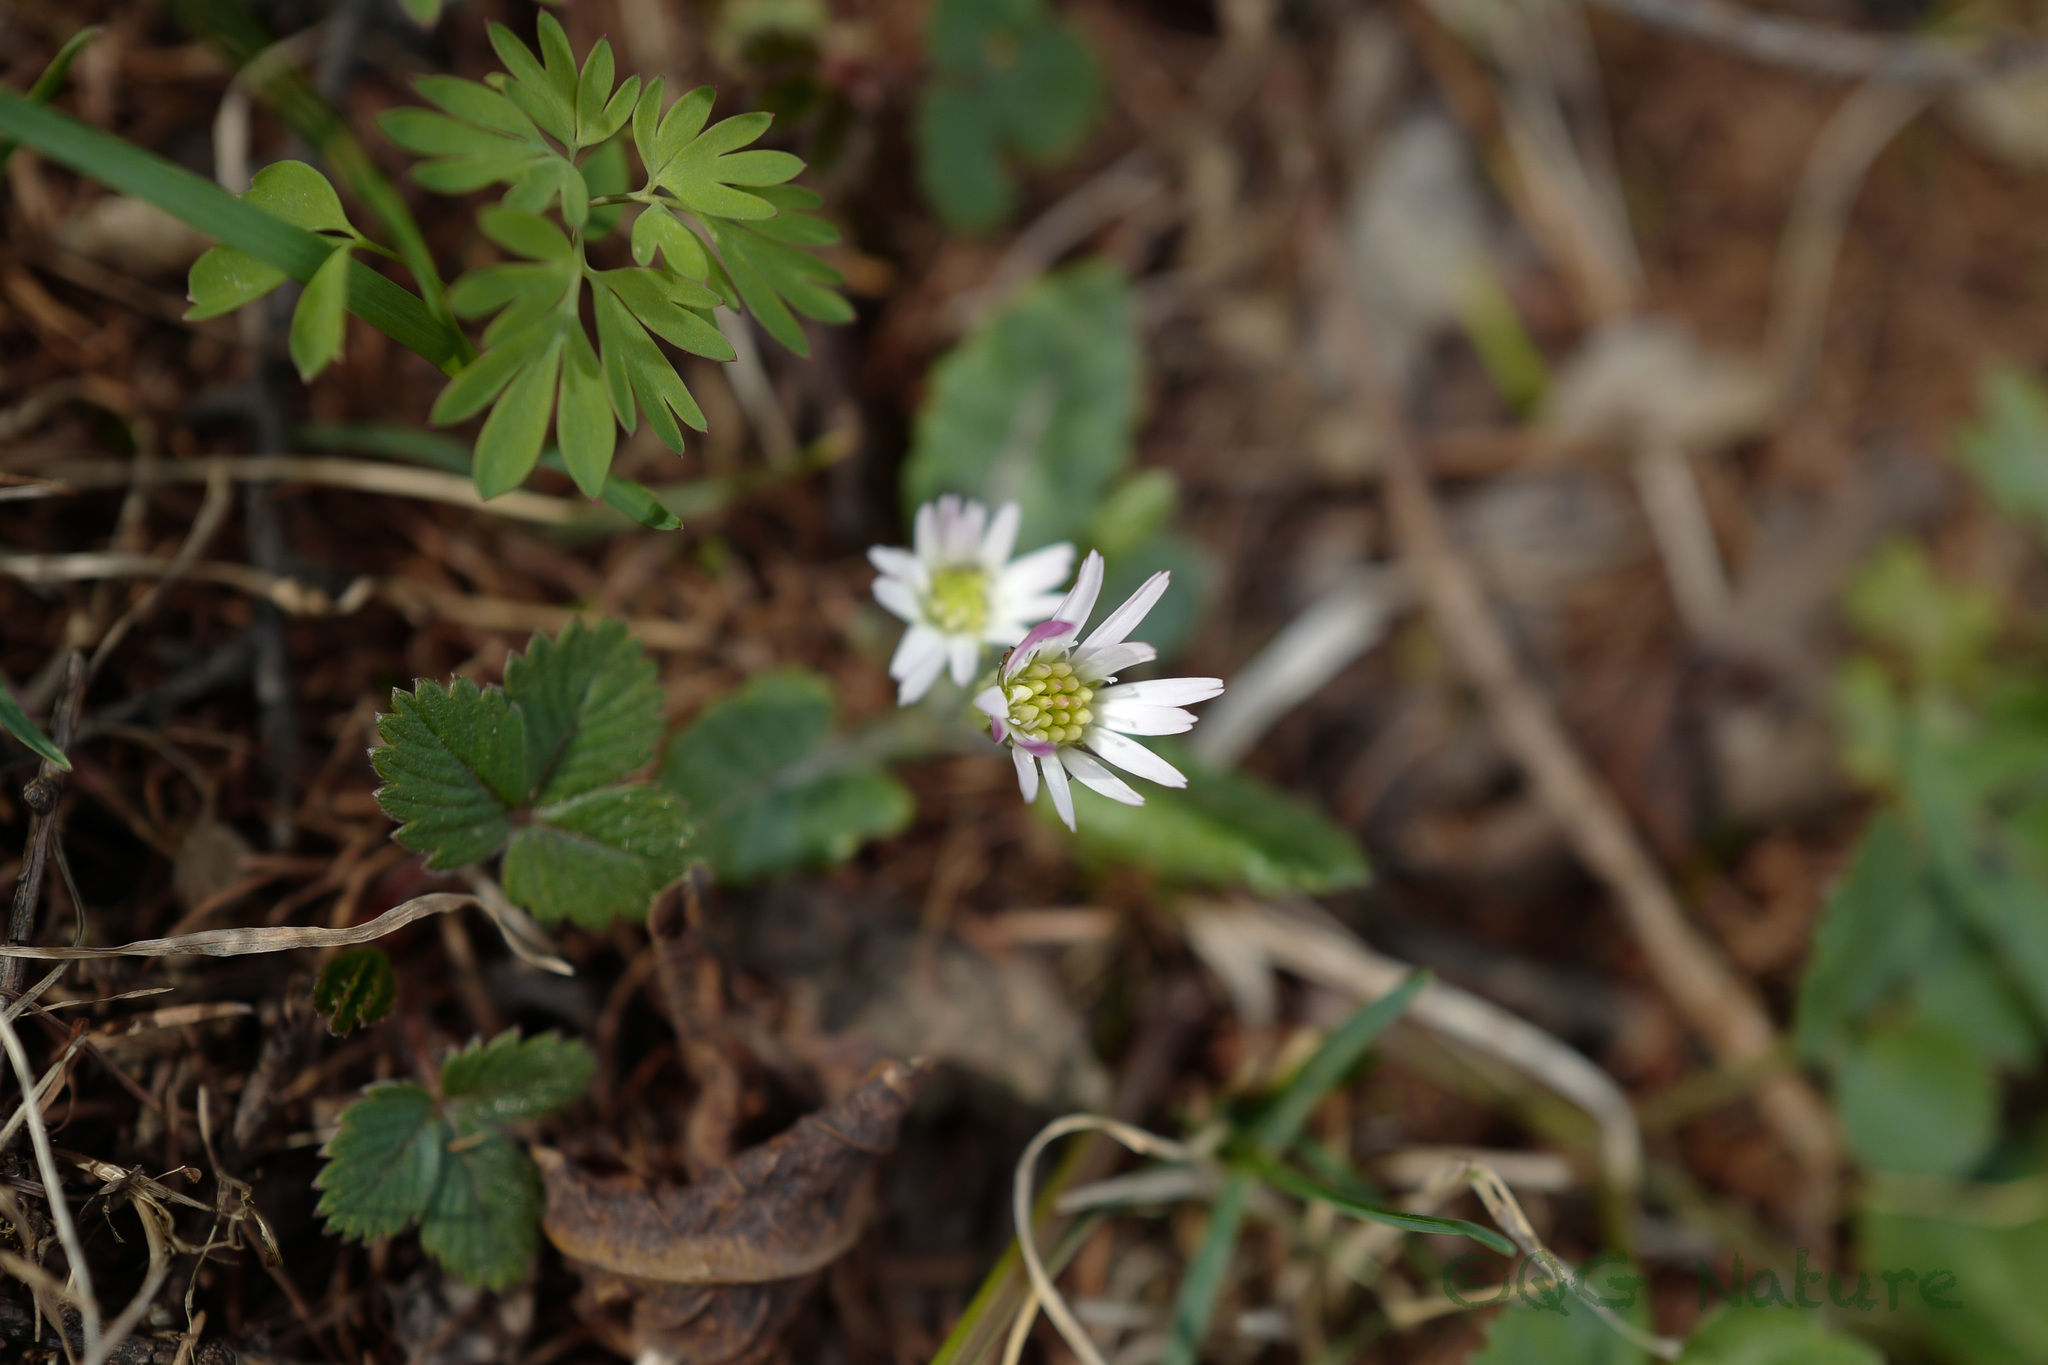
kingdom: Plantae
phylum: Tracheophyta
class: Magnoliopsida
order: Asterales
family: Asteraceae
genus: Leibnitzia
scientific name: Leibnitzia anandria
